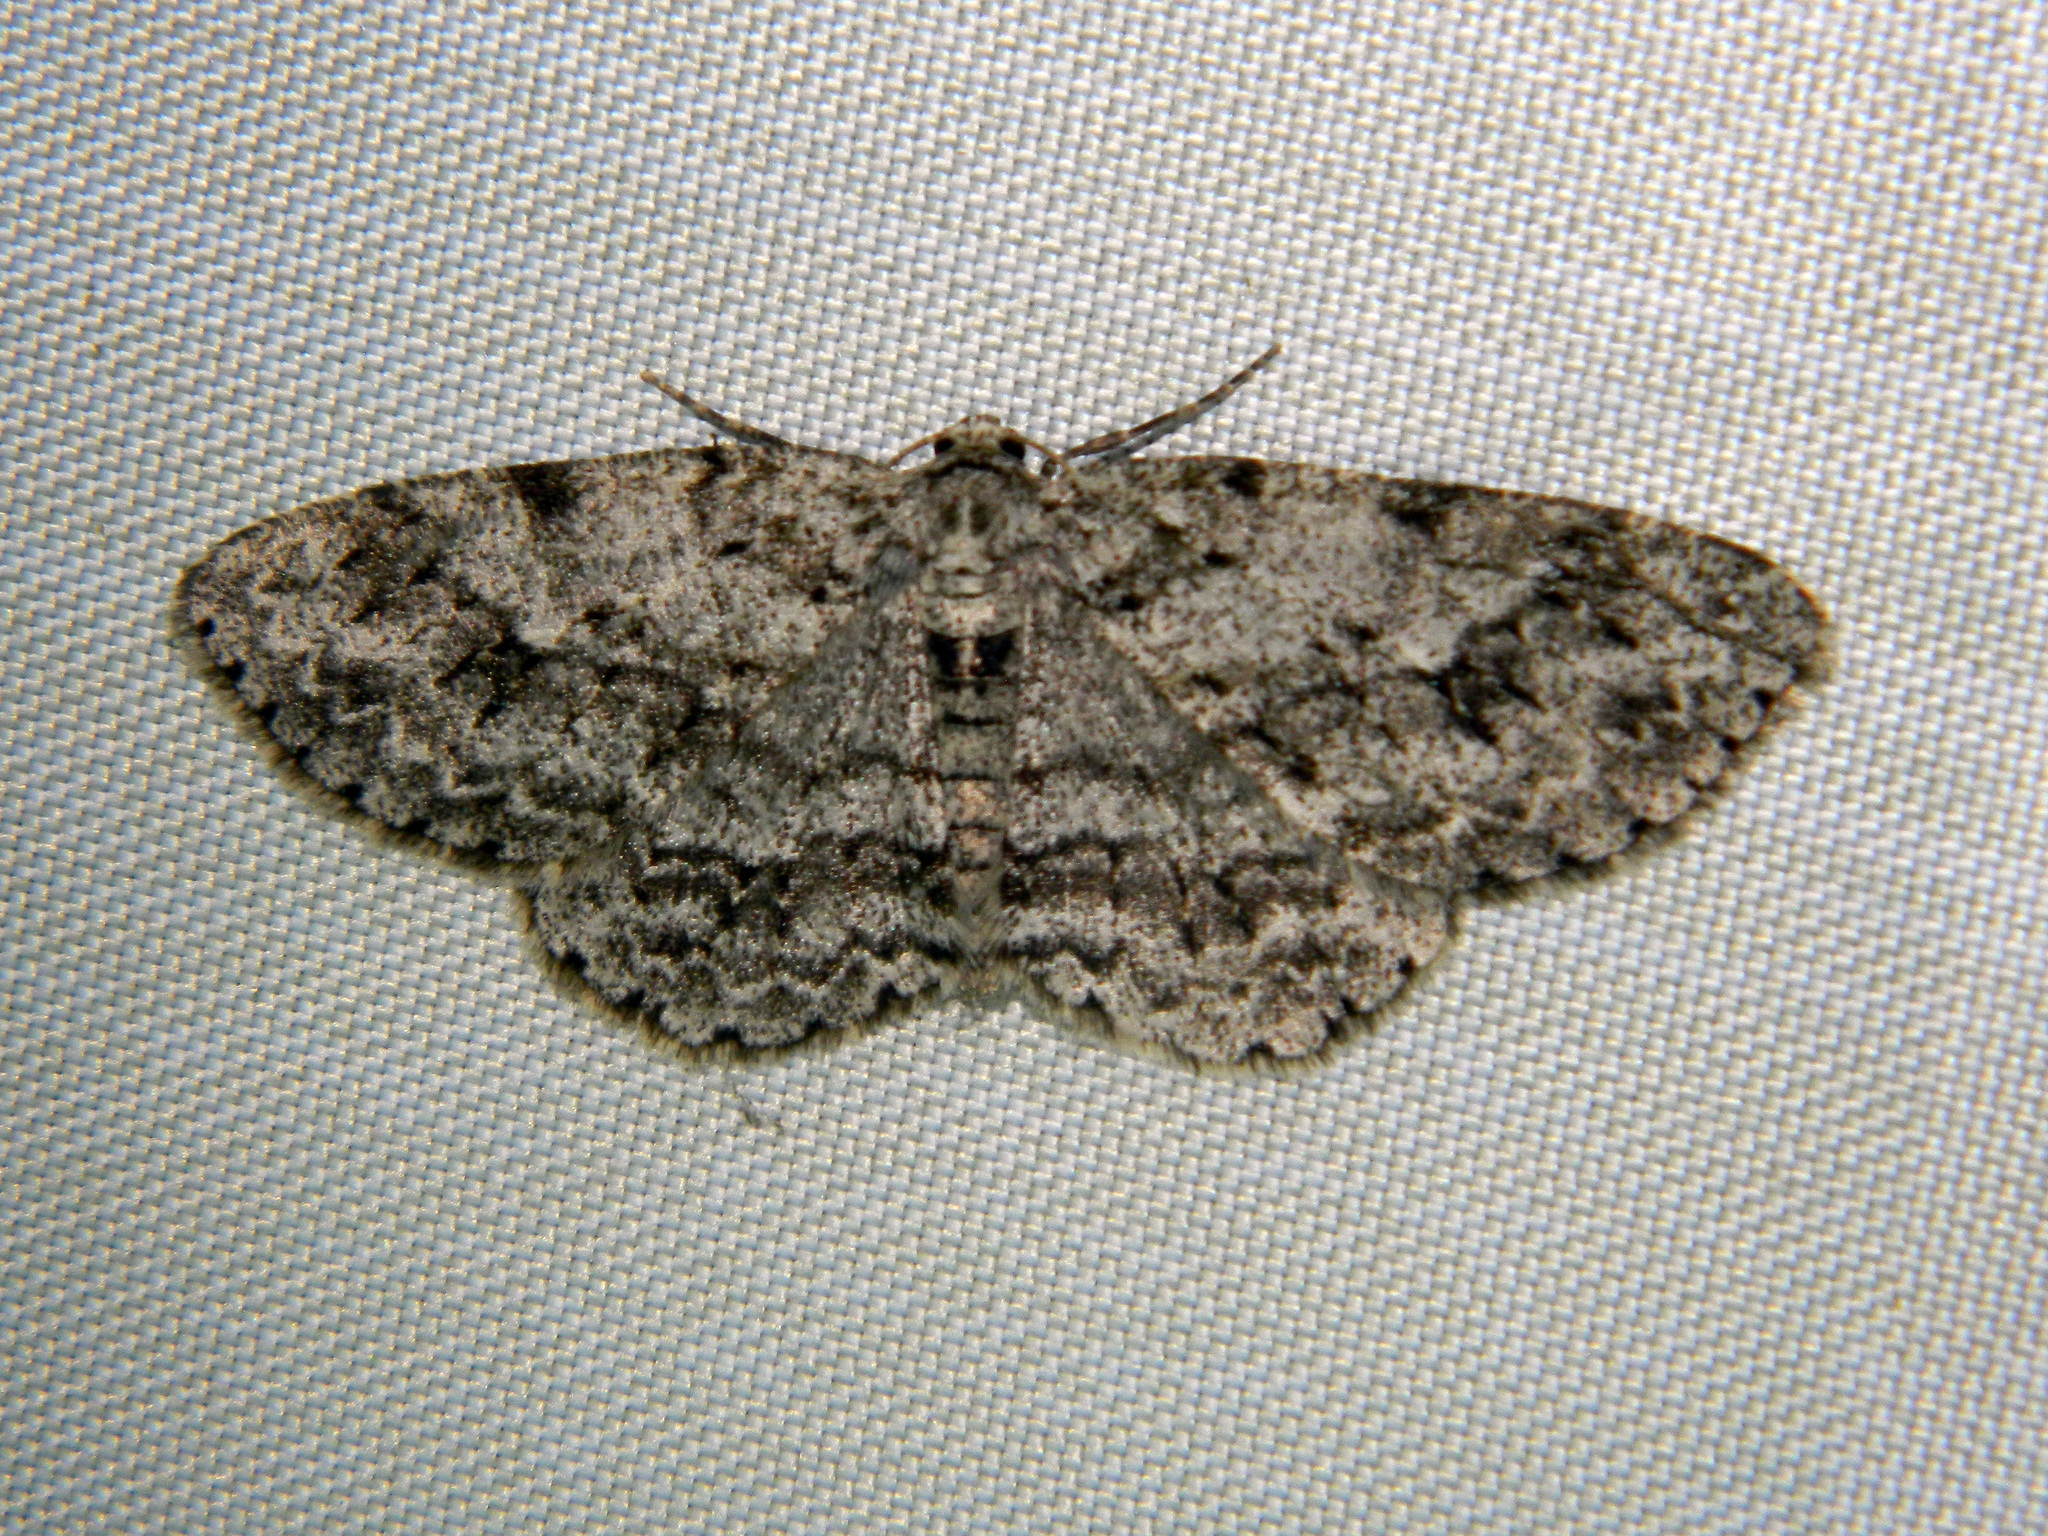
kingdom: Animalia
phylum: Arthropoda
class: Insecta
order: Lepidoptera
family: Geometridae
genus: Ectropis
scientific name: Ectropis crepuscularia
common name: Engrailed
